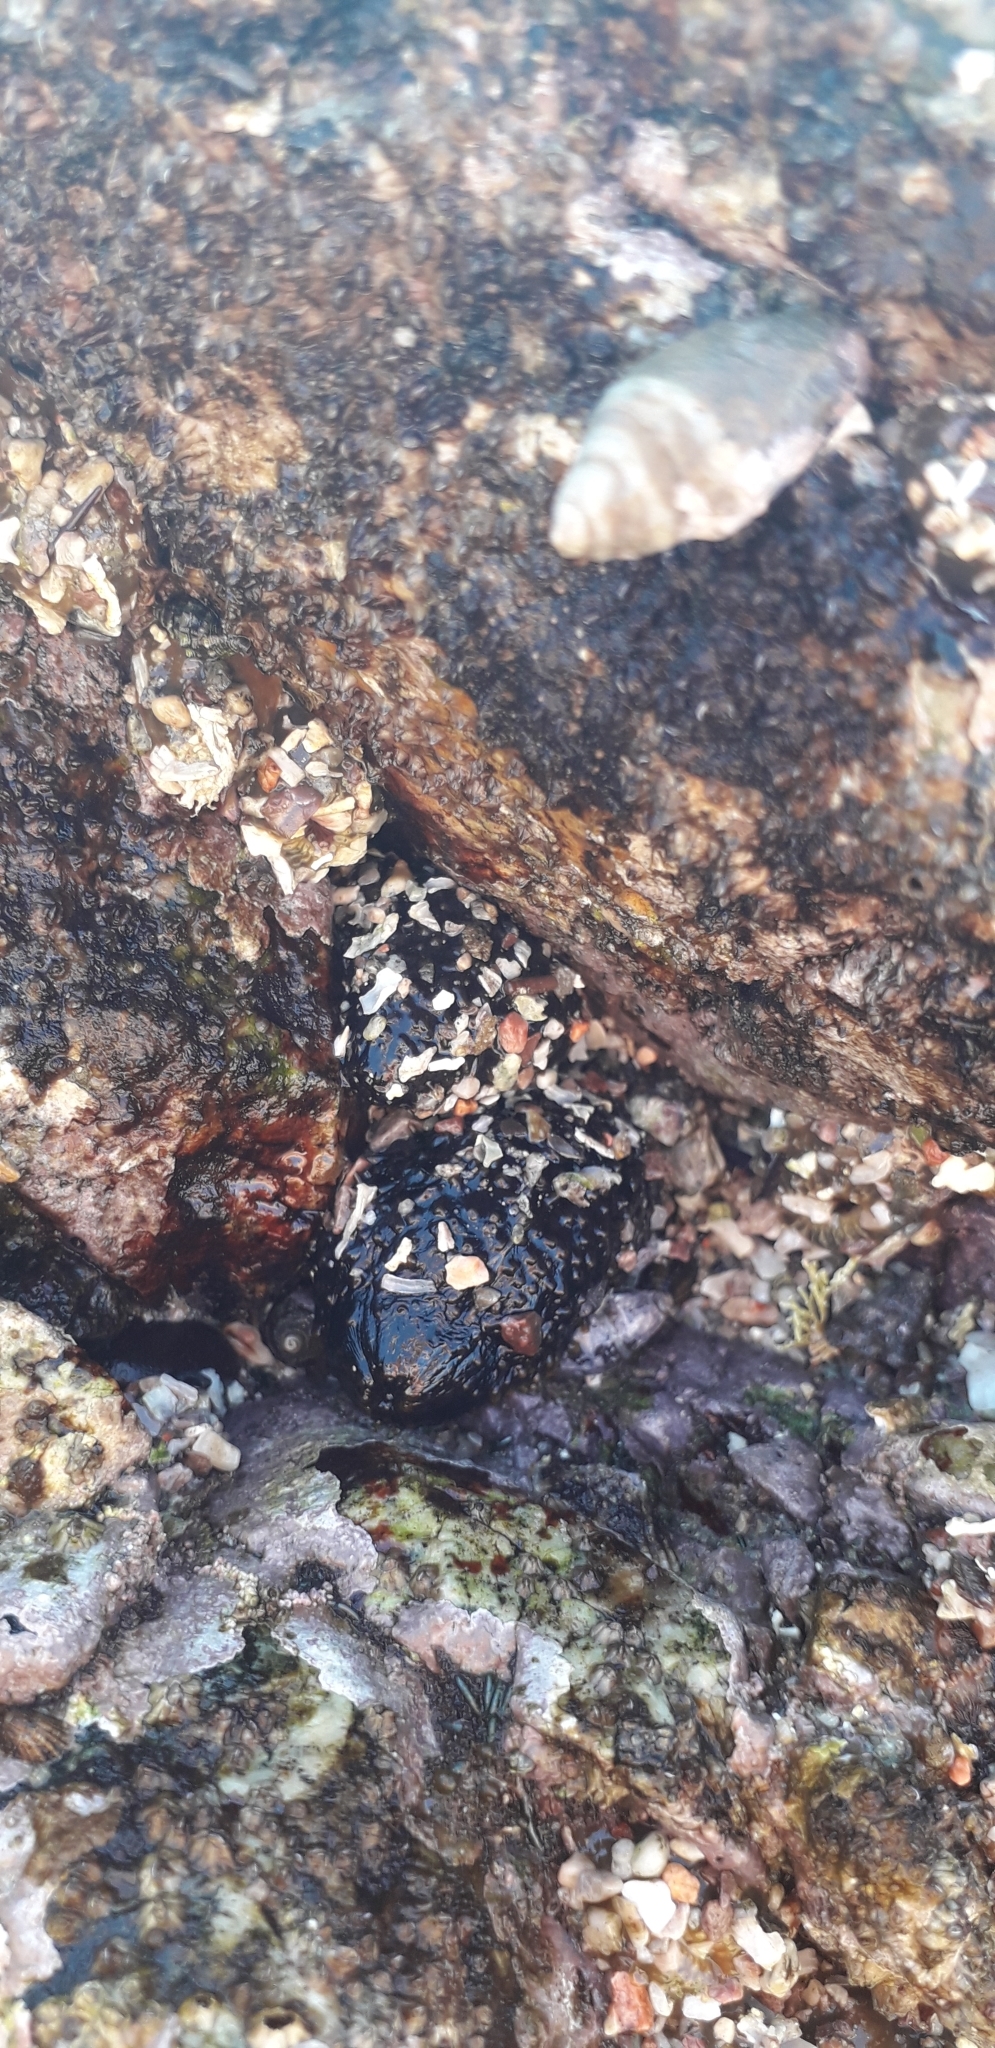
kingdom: Animalia
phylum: Echinodermata
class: Holothuroidea
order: Holothuriida
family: Holothuriidae
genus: Holothuria
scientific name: Holothuria lubrica
